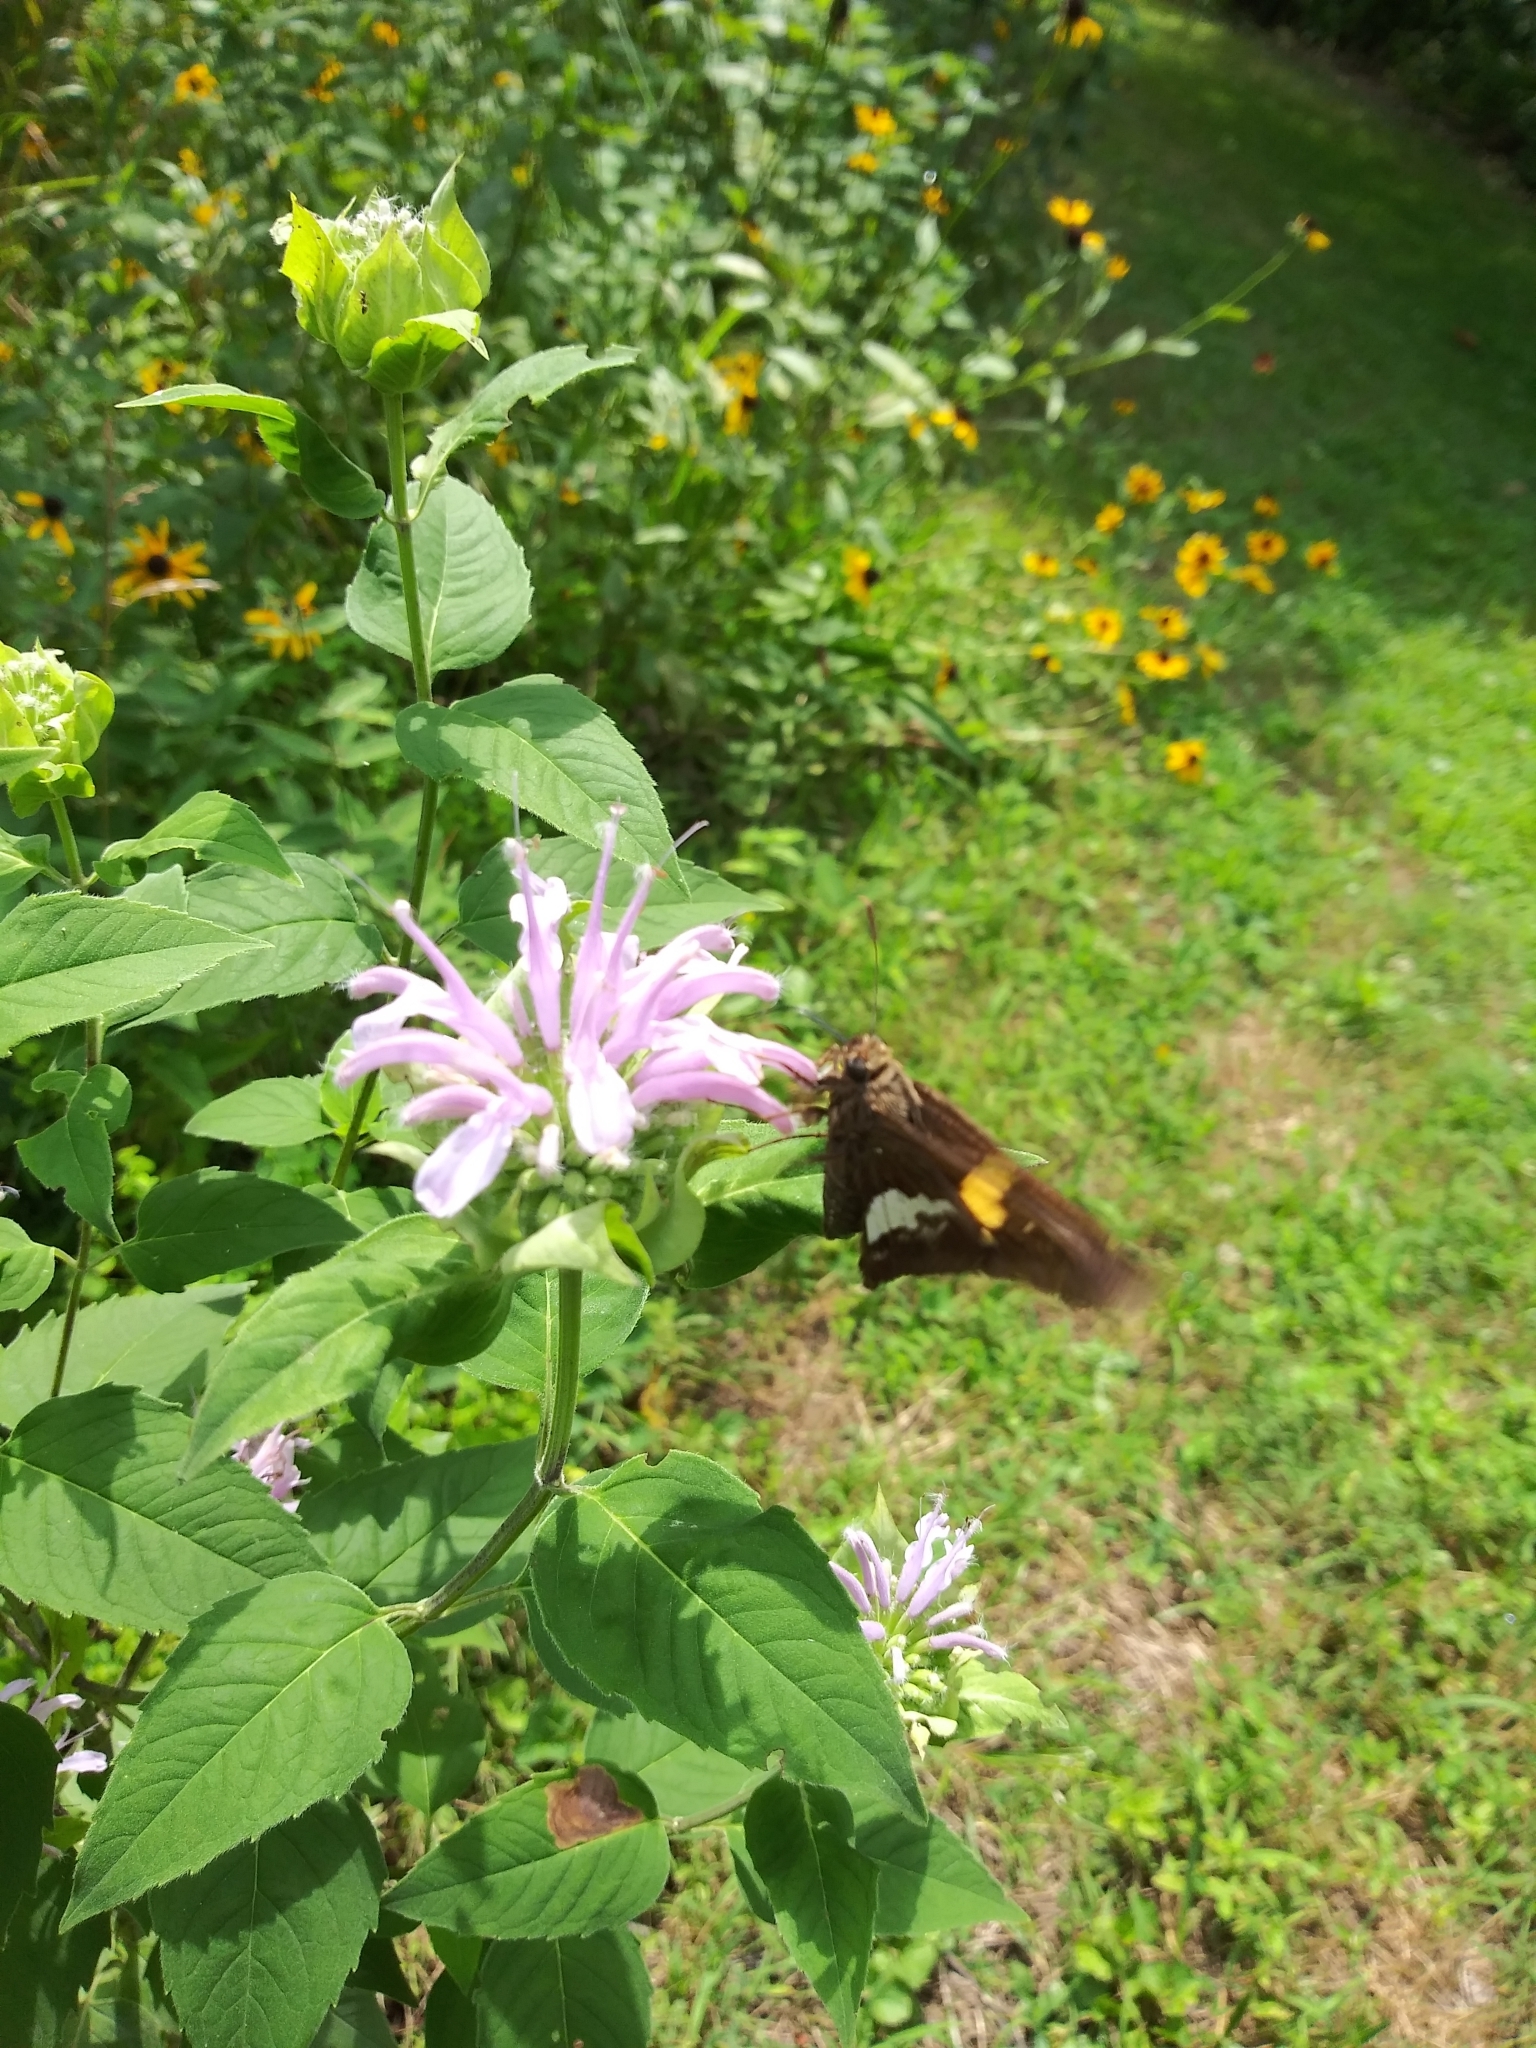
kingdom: Animalia
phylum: Arthropoda
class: Insecta
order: Lepidoptera
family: Hesperiidae
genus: Epargyreus
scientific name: Epargyreus clarus
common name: Silver-spotted skipper
